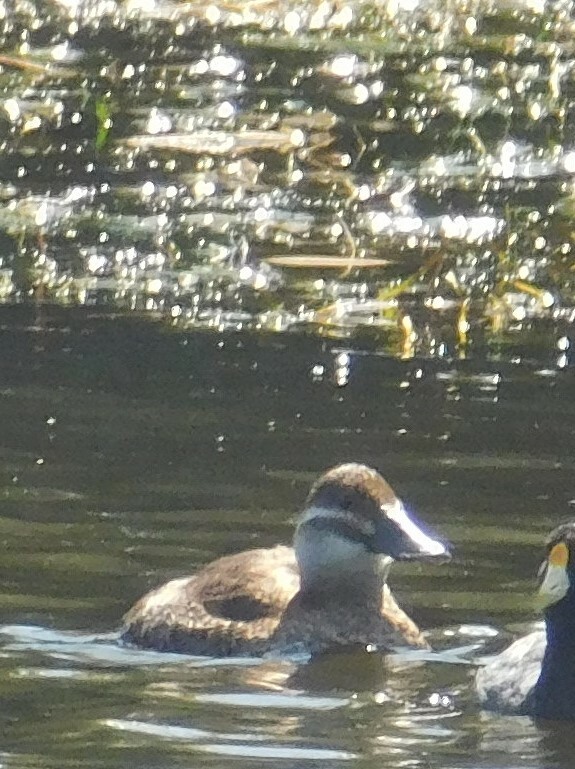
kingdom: Animalia
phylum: Chordata
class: Aves
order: Anseriformes
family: Anatidae
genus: Oxyura
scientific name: Oxyura vittata
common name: Lake duck
